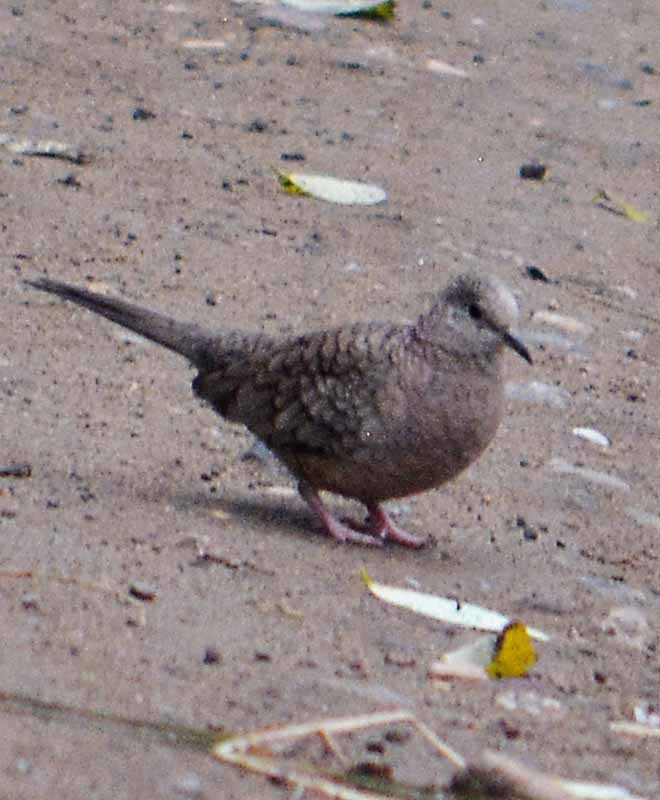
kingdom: Animalia
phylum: Chordata
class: Aves
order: Columbiformes
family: Columbidae
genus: Columbina
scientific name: Columbina inca
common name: Inca dove
